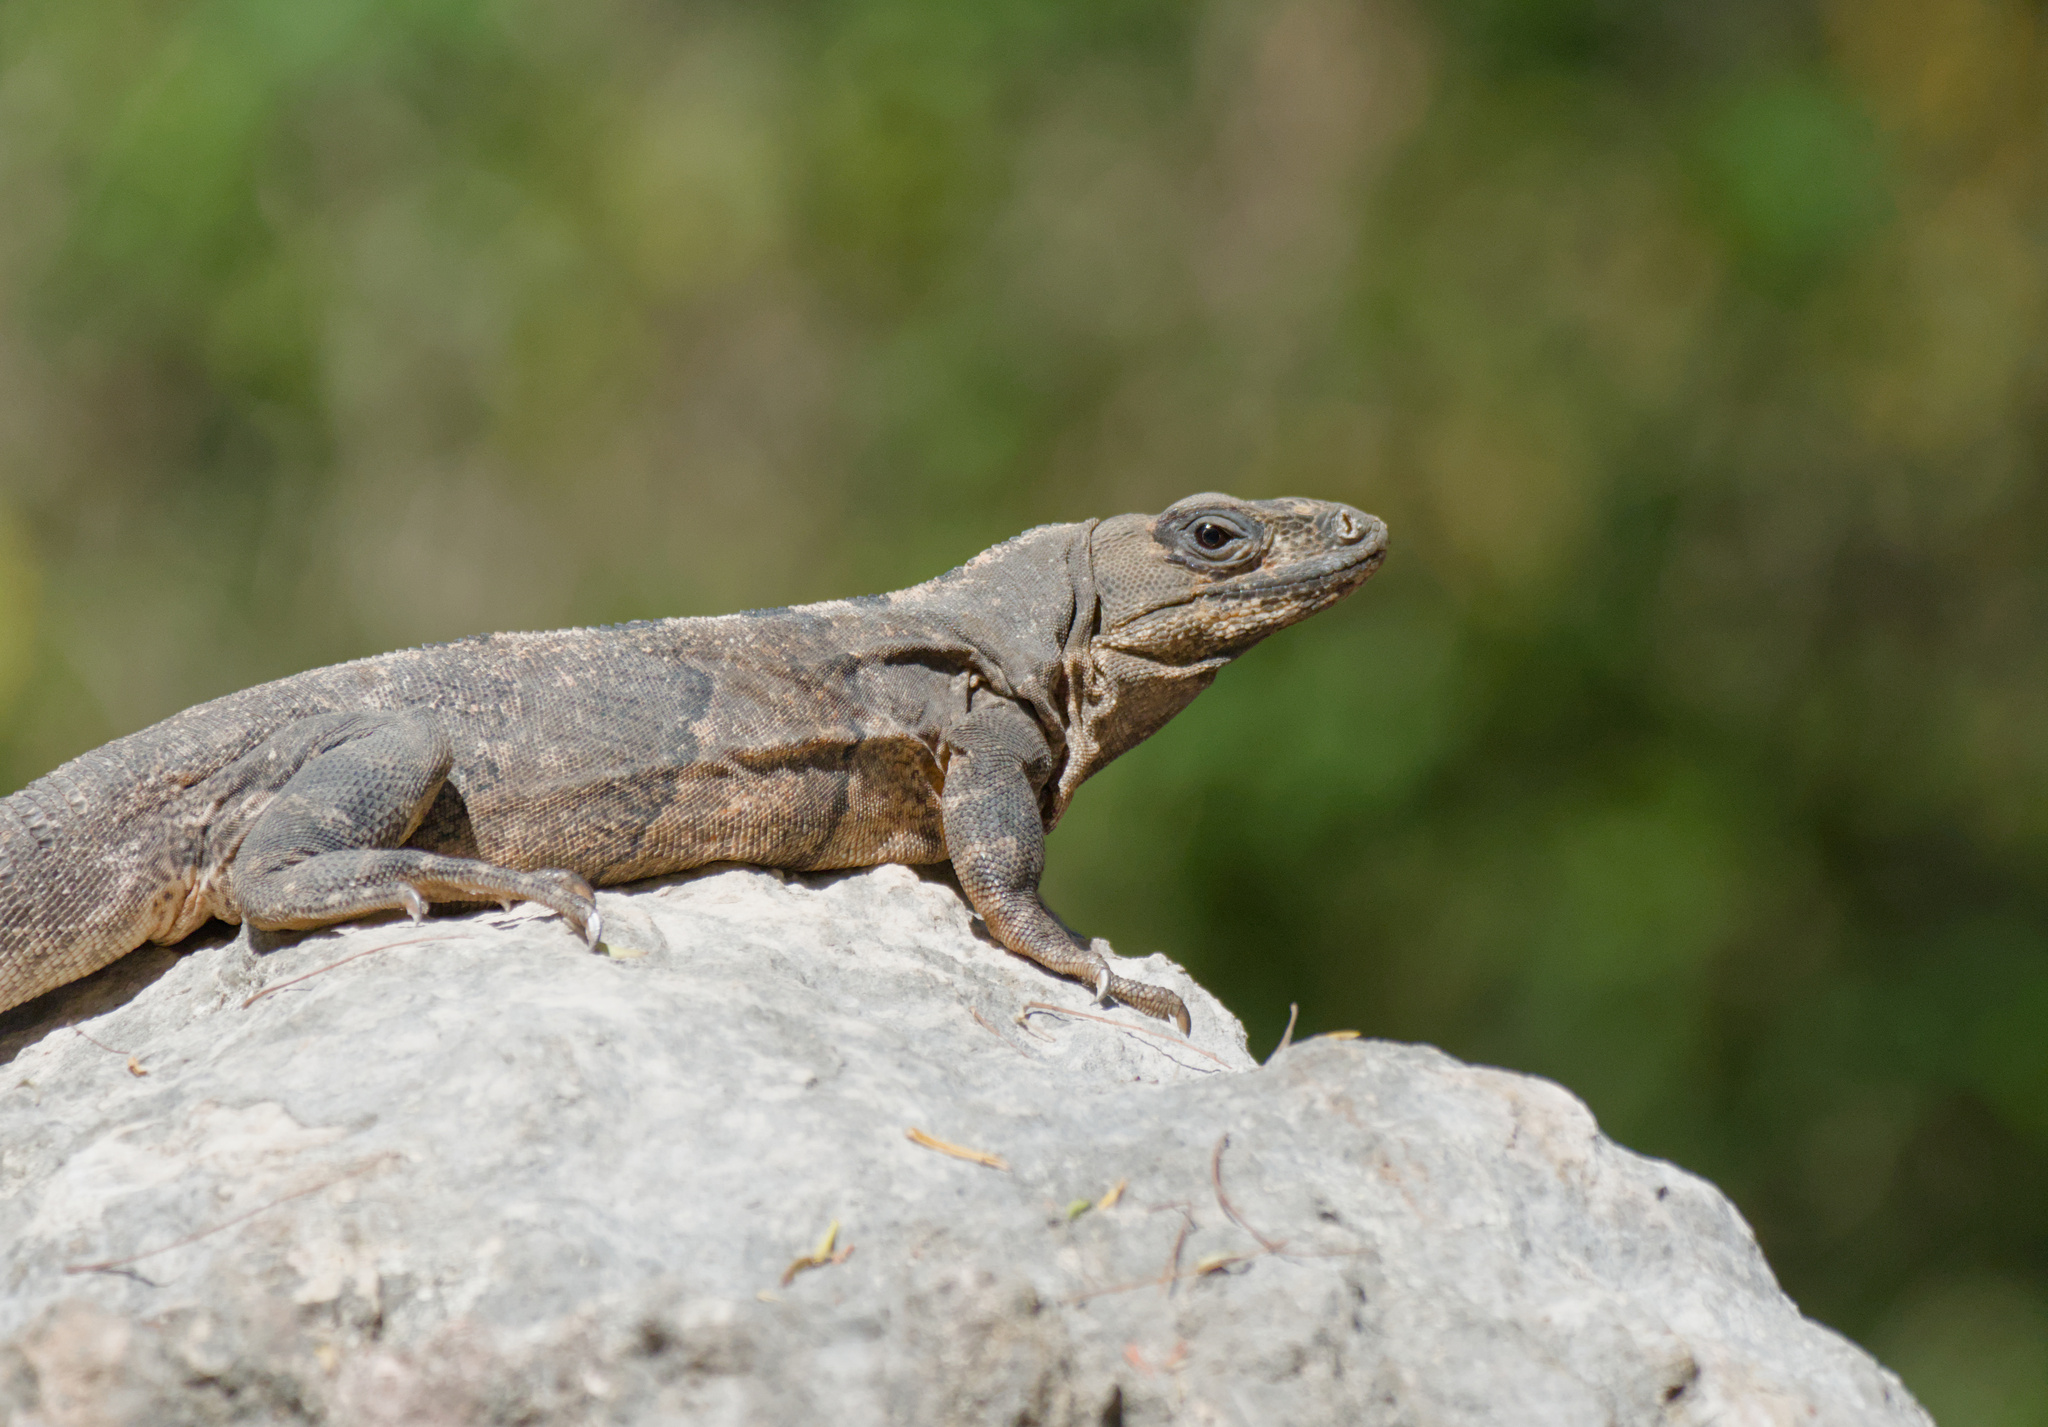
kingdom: Animalia
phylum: Chordata
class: Squamata
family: Iguanidae
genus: Ctenosaura
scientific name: Ctenosaura similis
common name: Black spiny-tailed iguana
